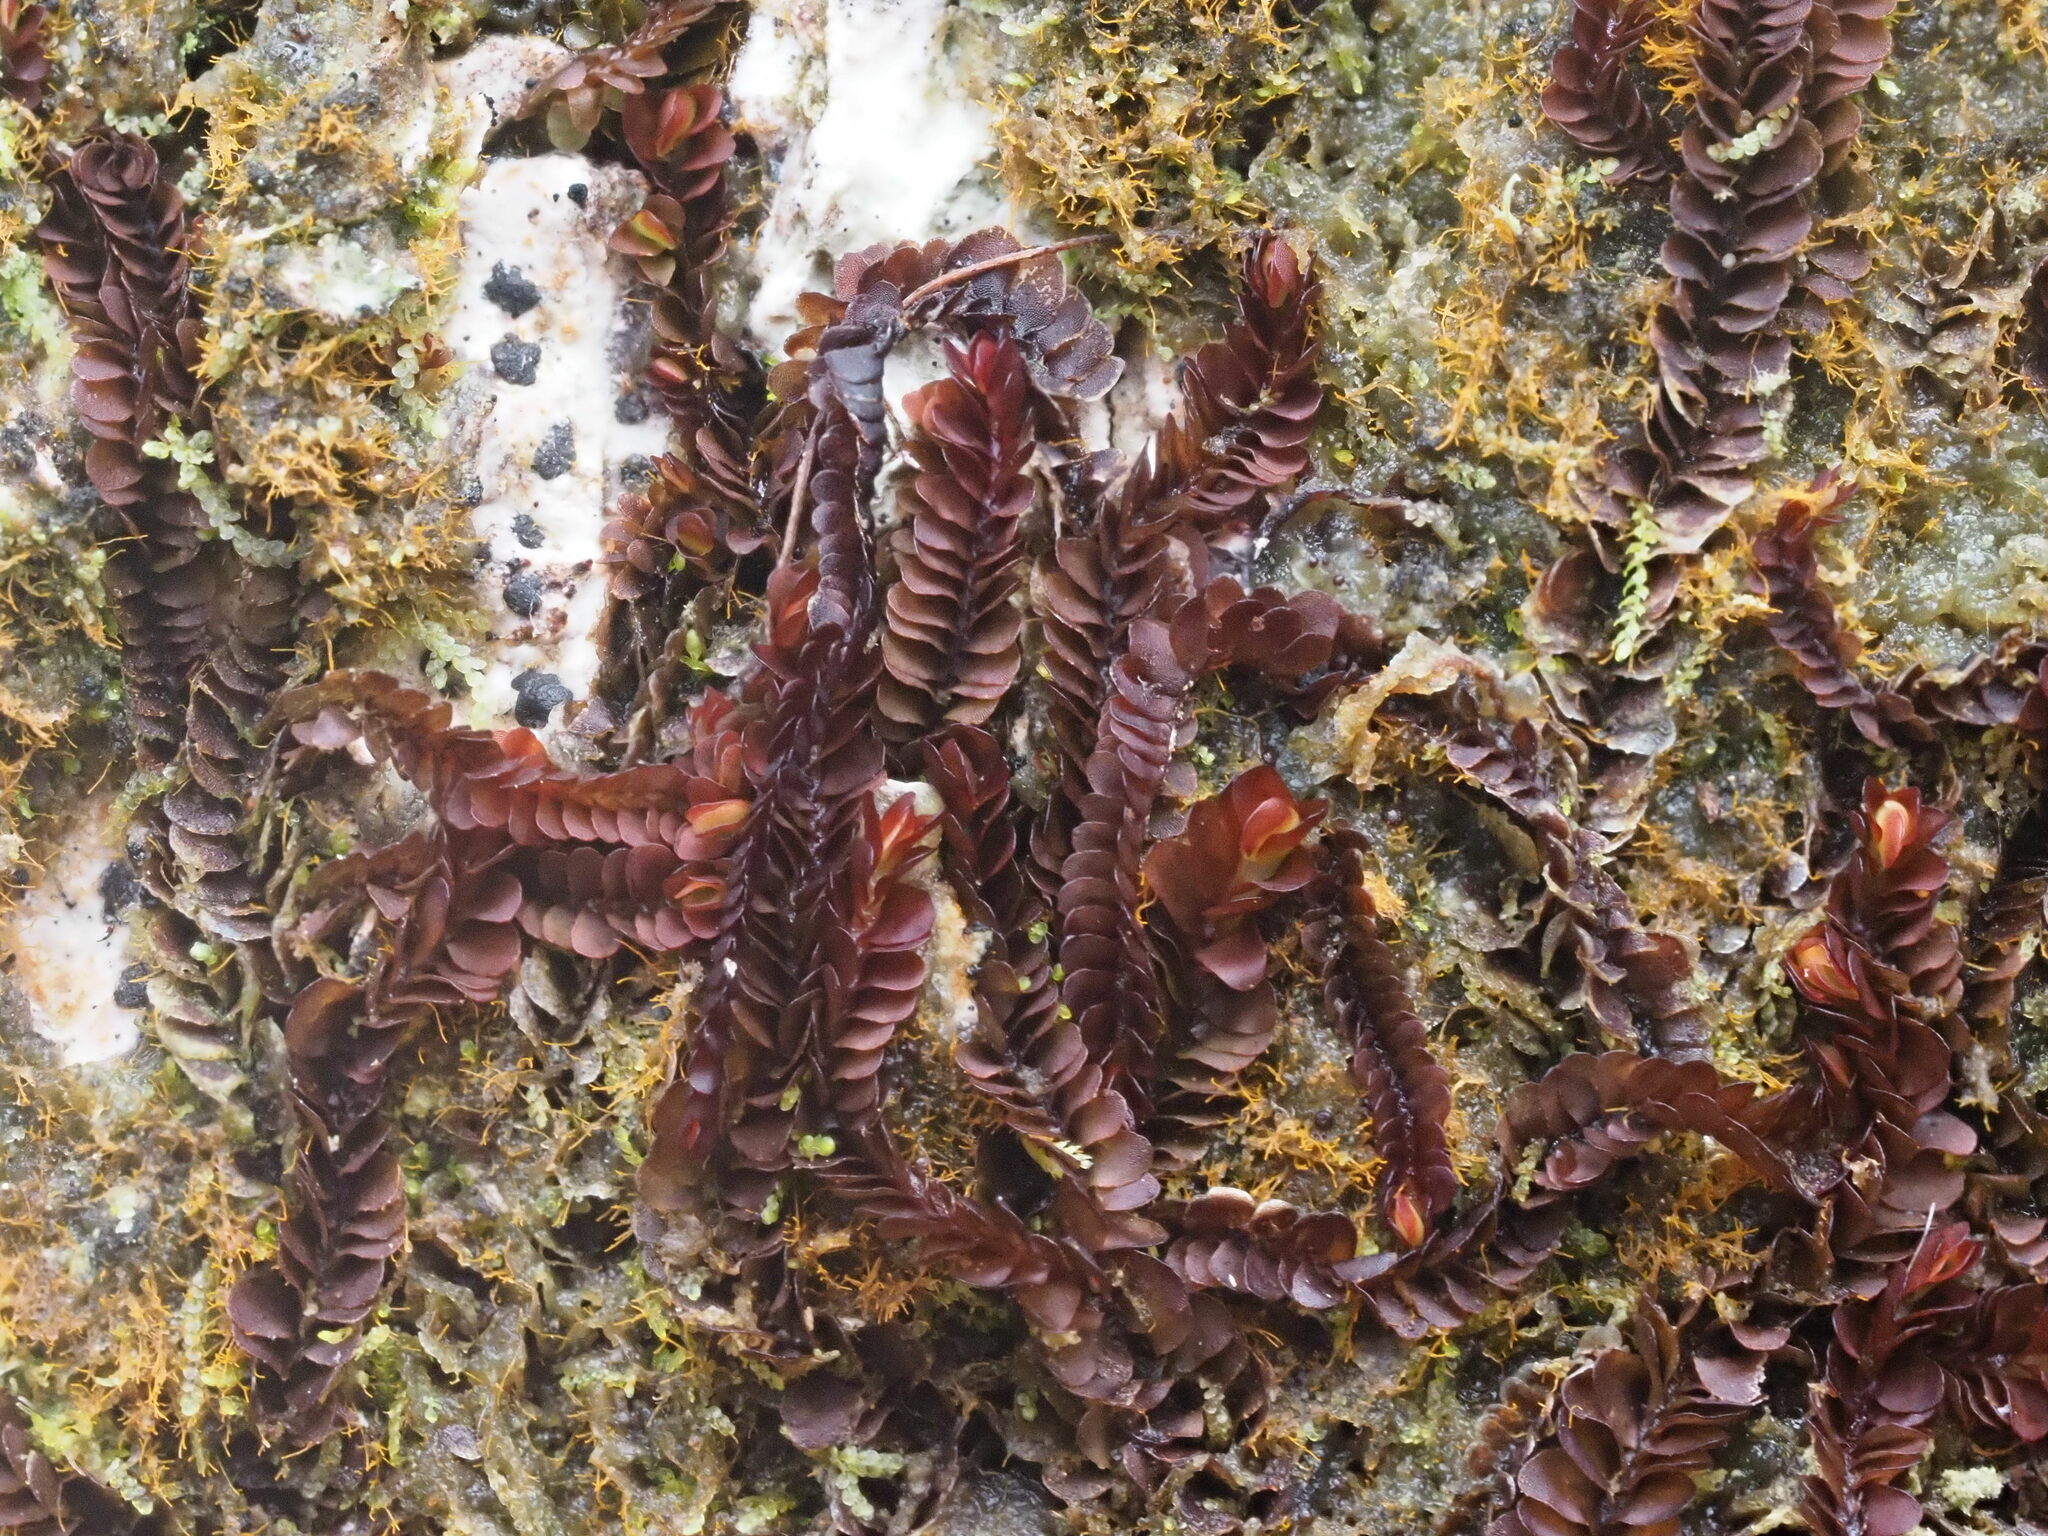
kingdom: Plantae
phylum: Marchantiophyta
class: Jungermanniopsida
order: Jungermanniales
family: Adelanthaceae
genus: Cuspidatula
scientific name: Cuspidatula robusta
